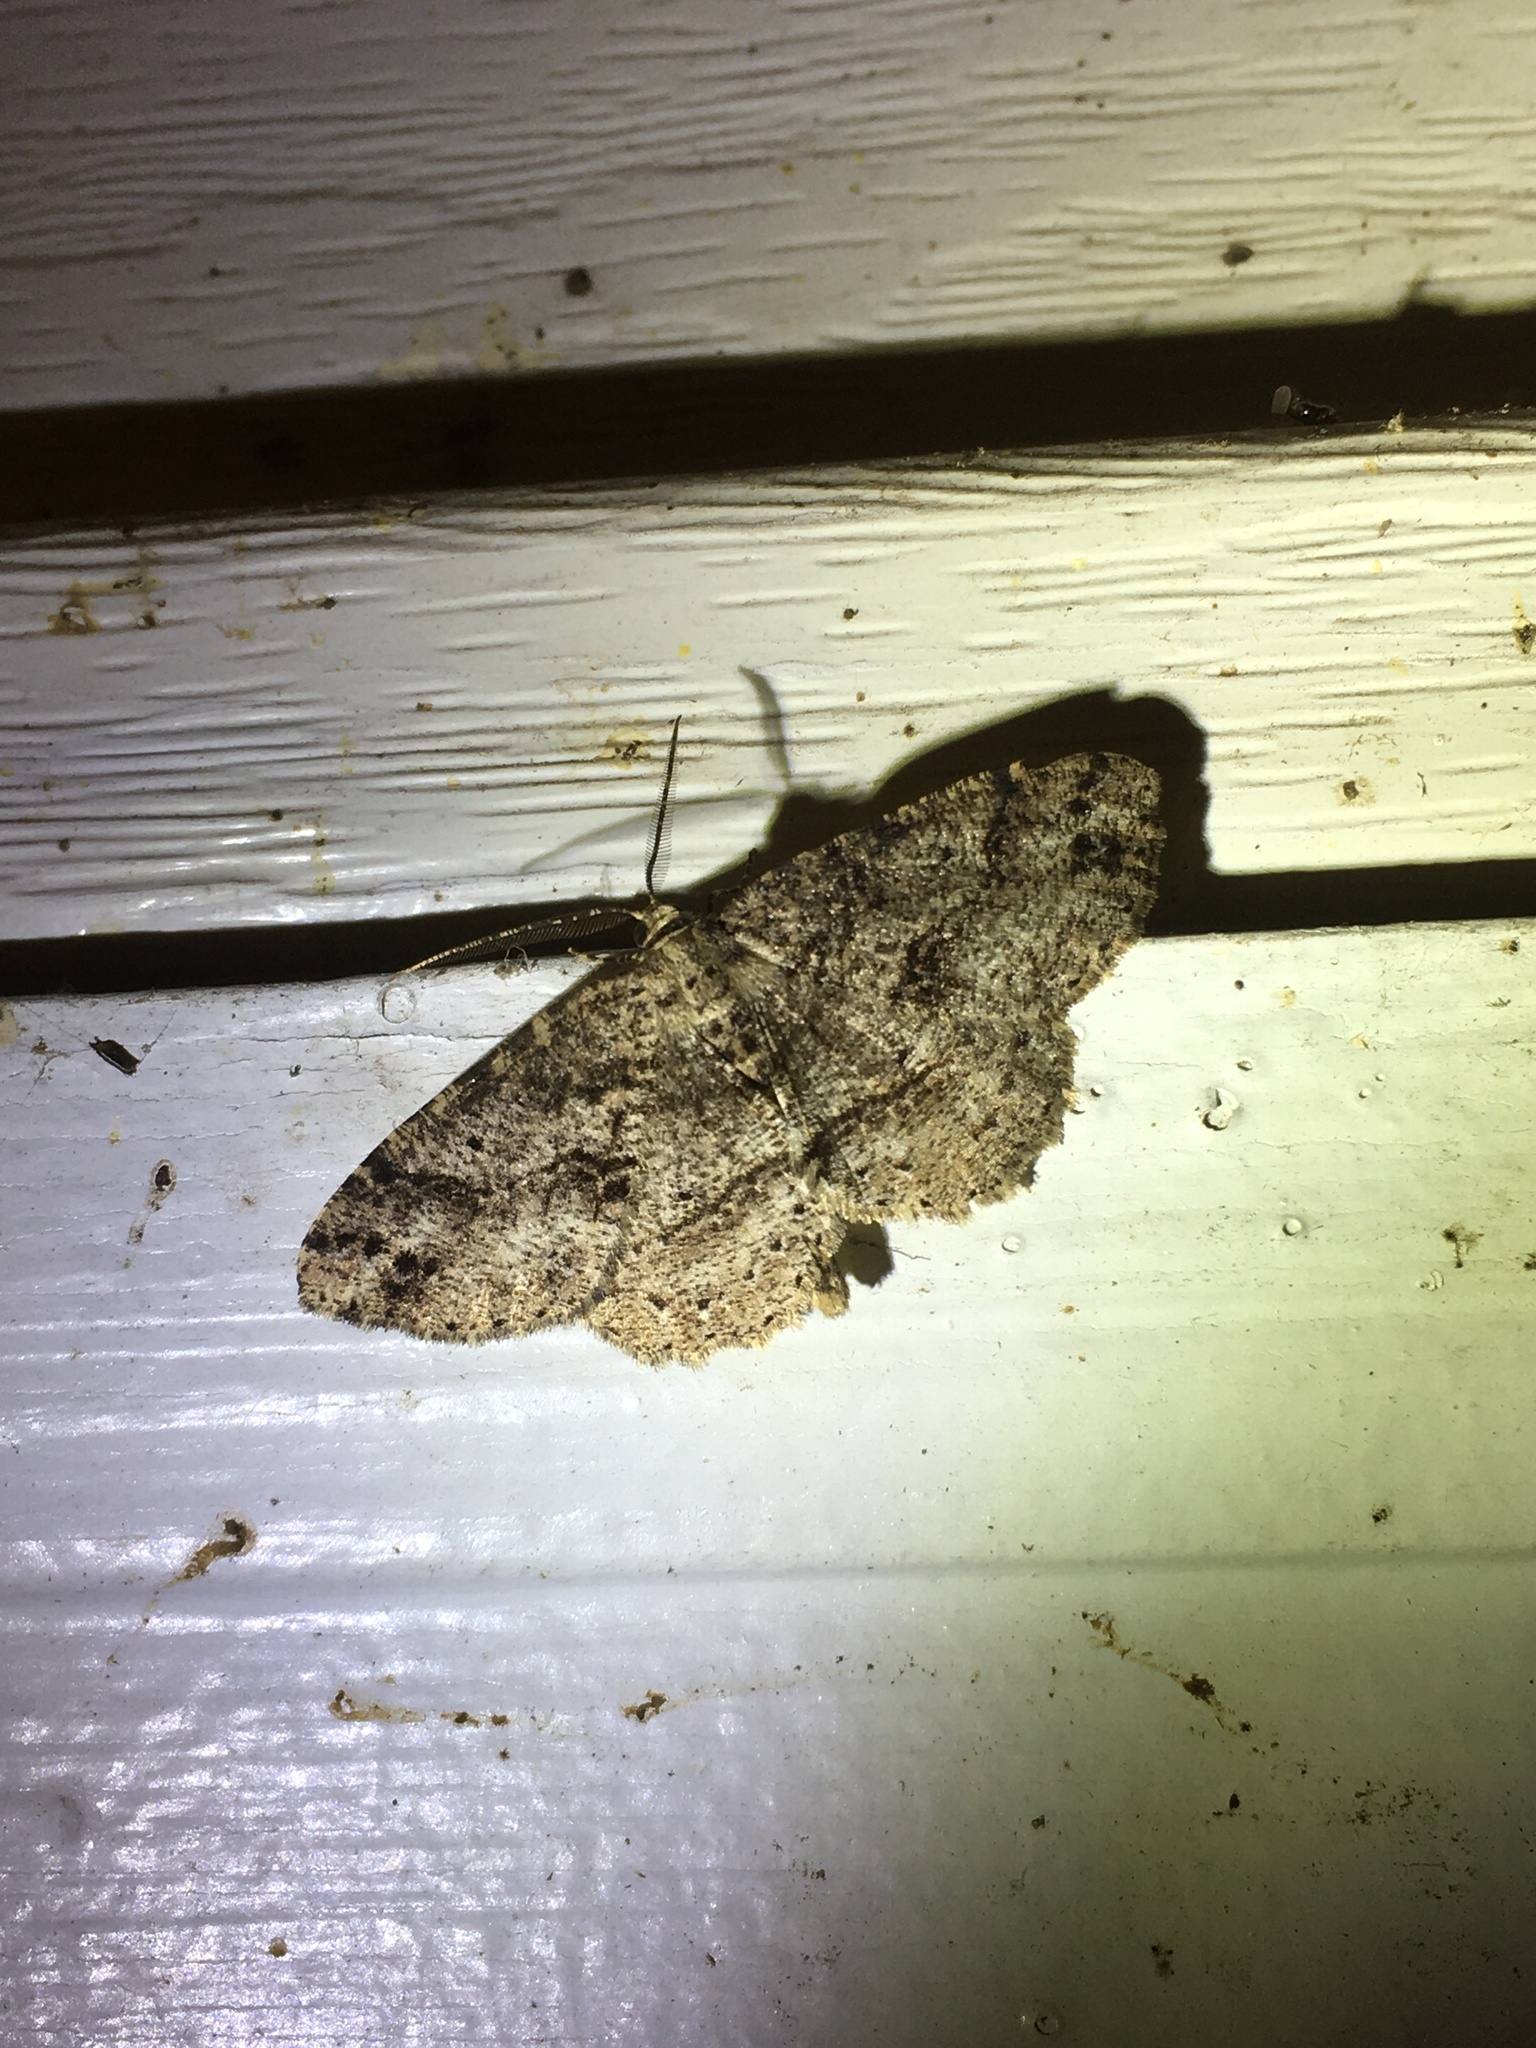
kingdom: Animalia
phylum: Arthropoda
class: Insecta
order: Lepidoptera
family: Geometridae
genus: Melanolophia
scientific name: Melanolophia canadaria
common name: Canadian melanolophia
